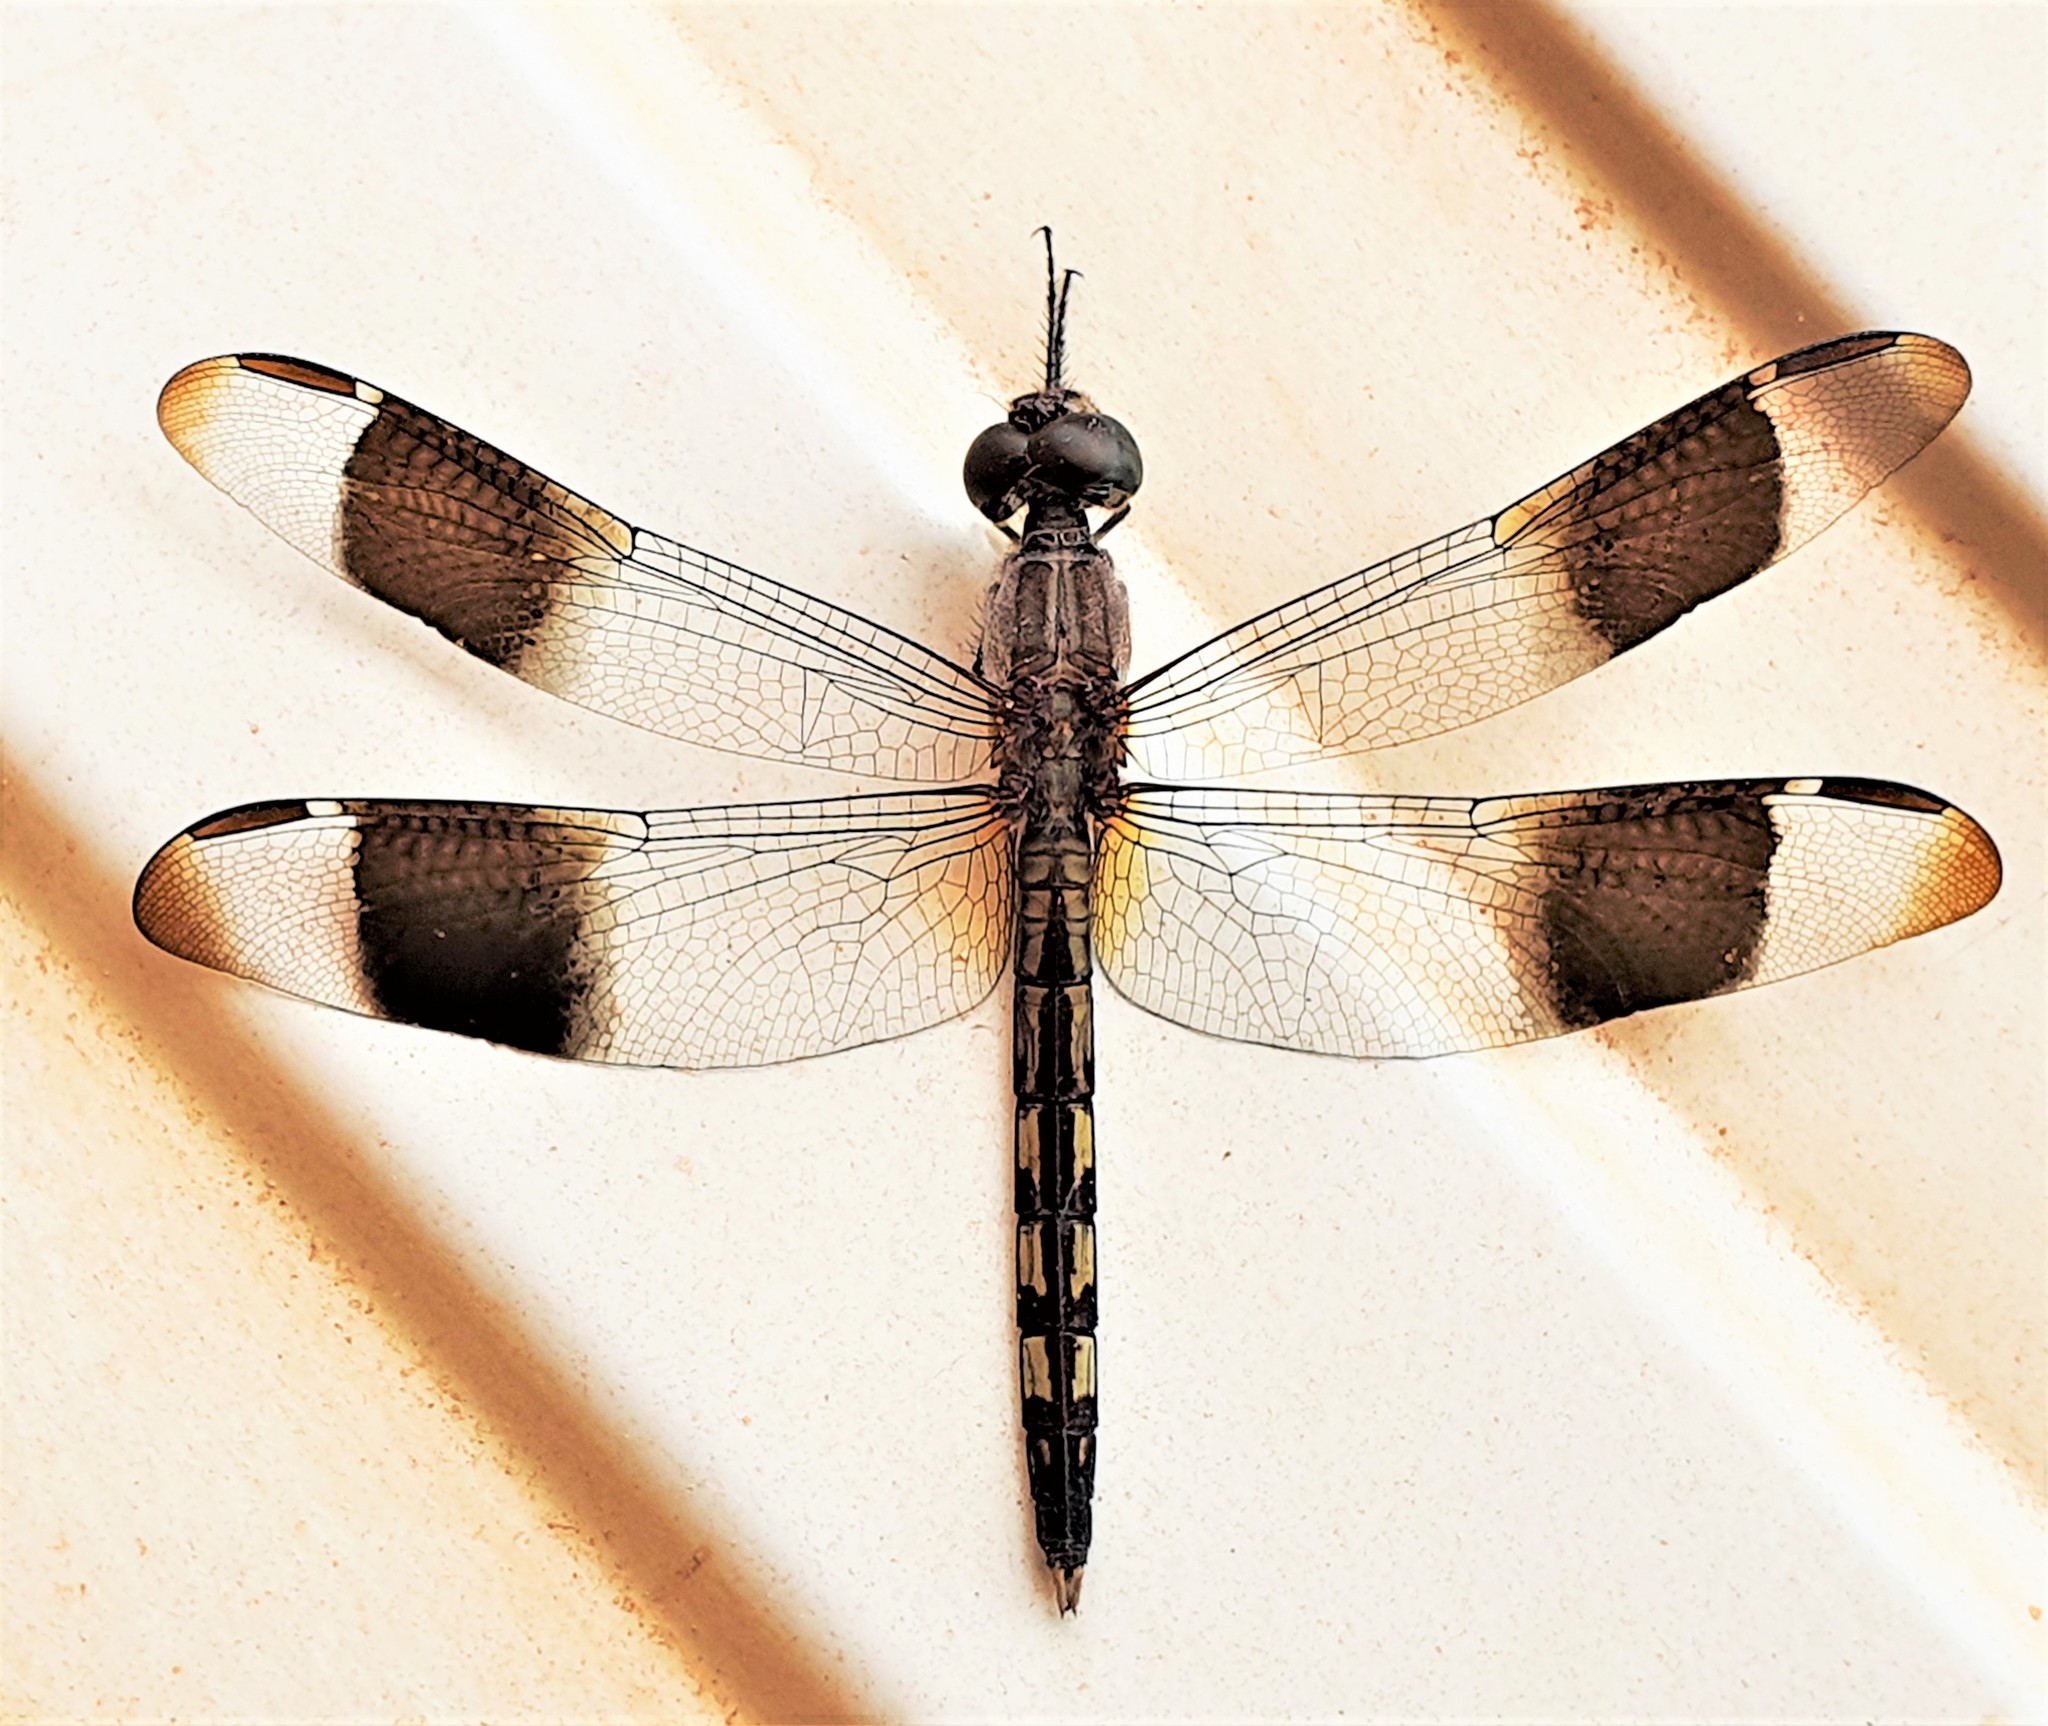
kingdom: Animalia
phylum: Arthropoda
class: Insecta
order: Odonata
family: Libellulidae
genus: Erythrodiplax
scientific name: Erythrodiplax umbrata
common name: Band-winged dragonlet
